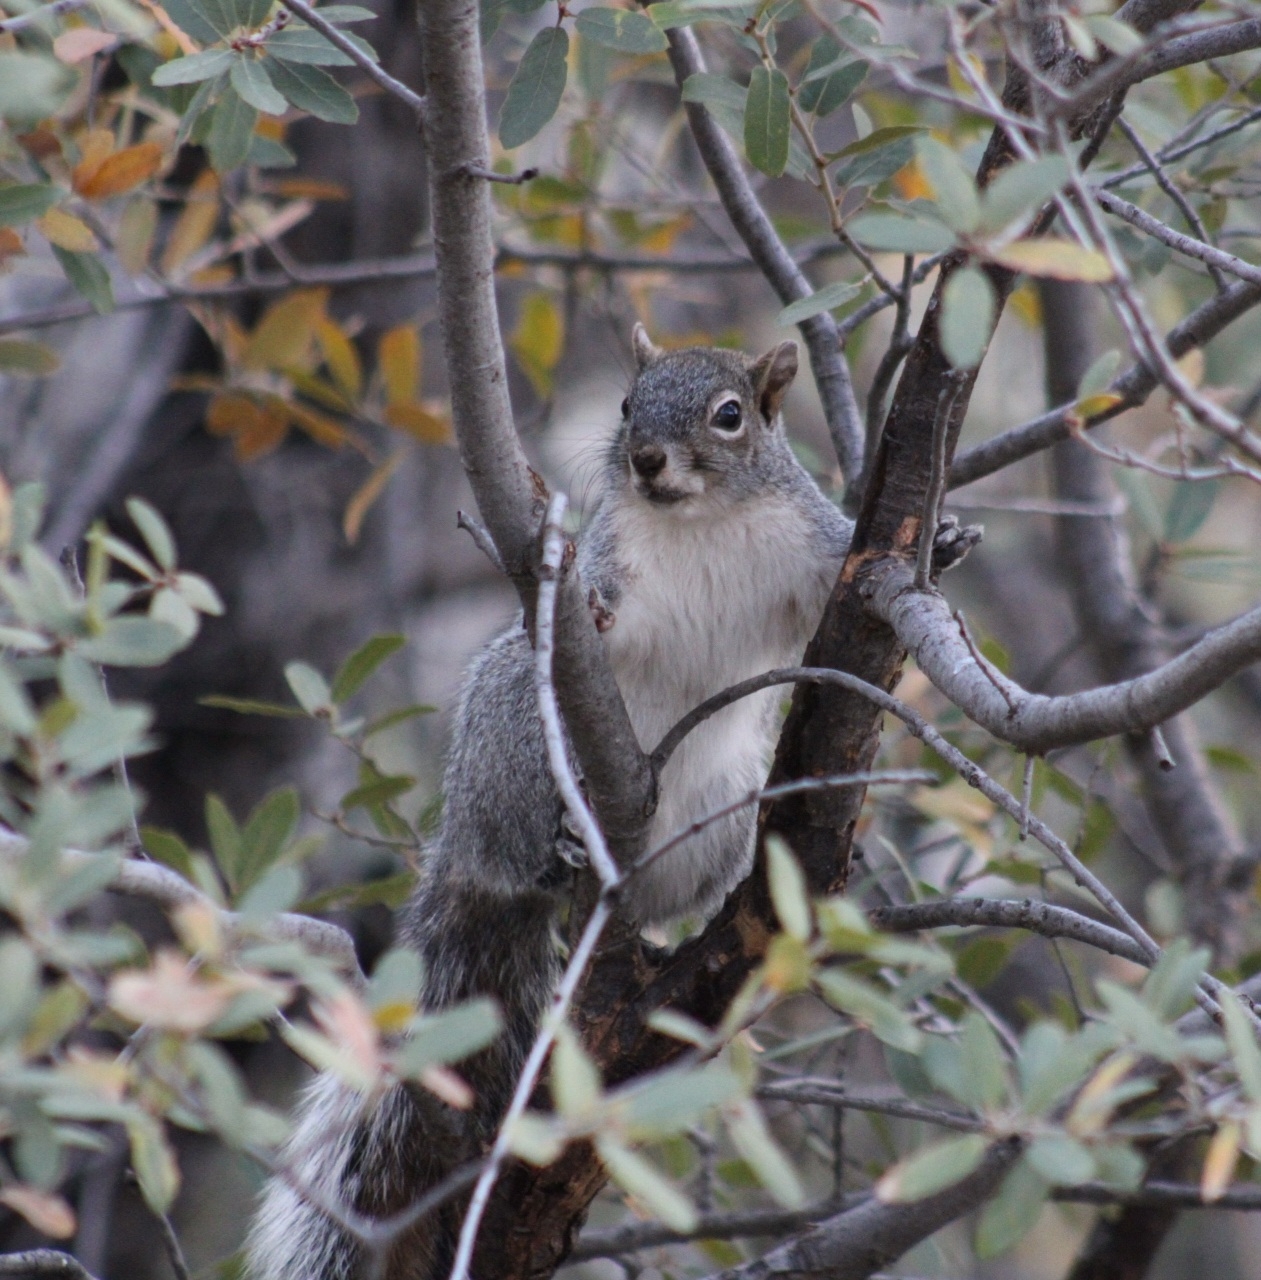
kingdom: Animalia
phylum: Chordata
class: Mammalia
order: Rodentia
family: Sciuridae
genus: Sciurus
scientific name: Sciurus arizonensis
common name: Arizona gray squirrel
